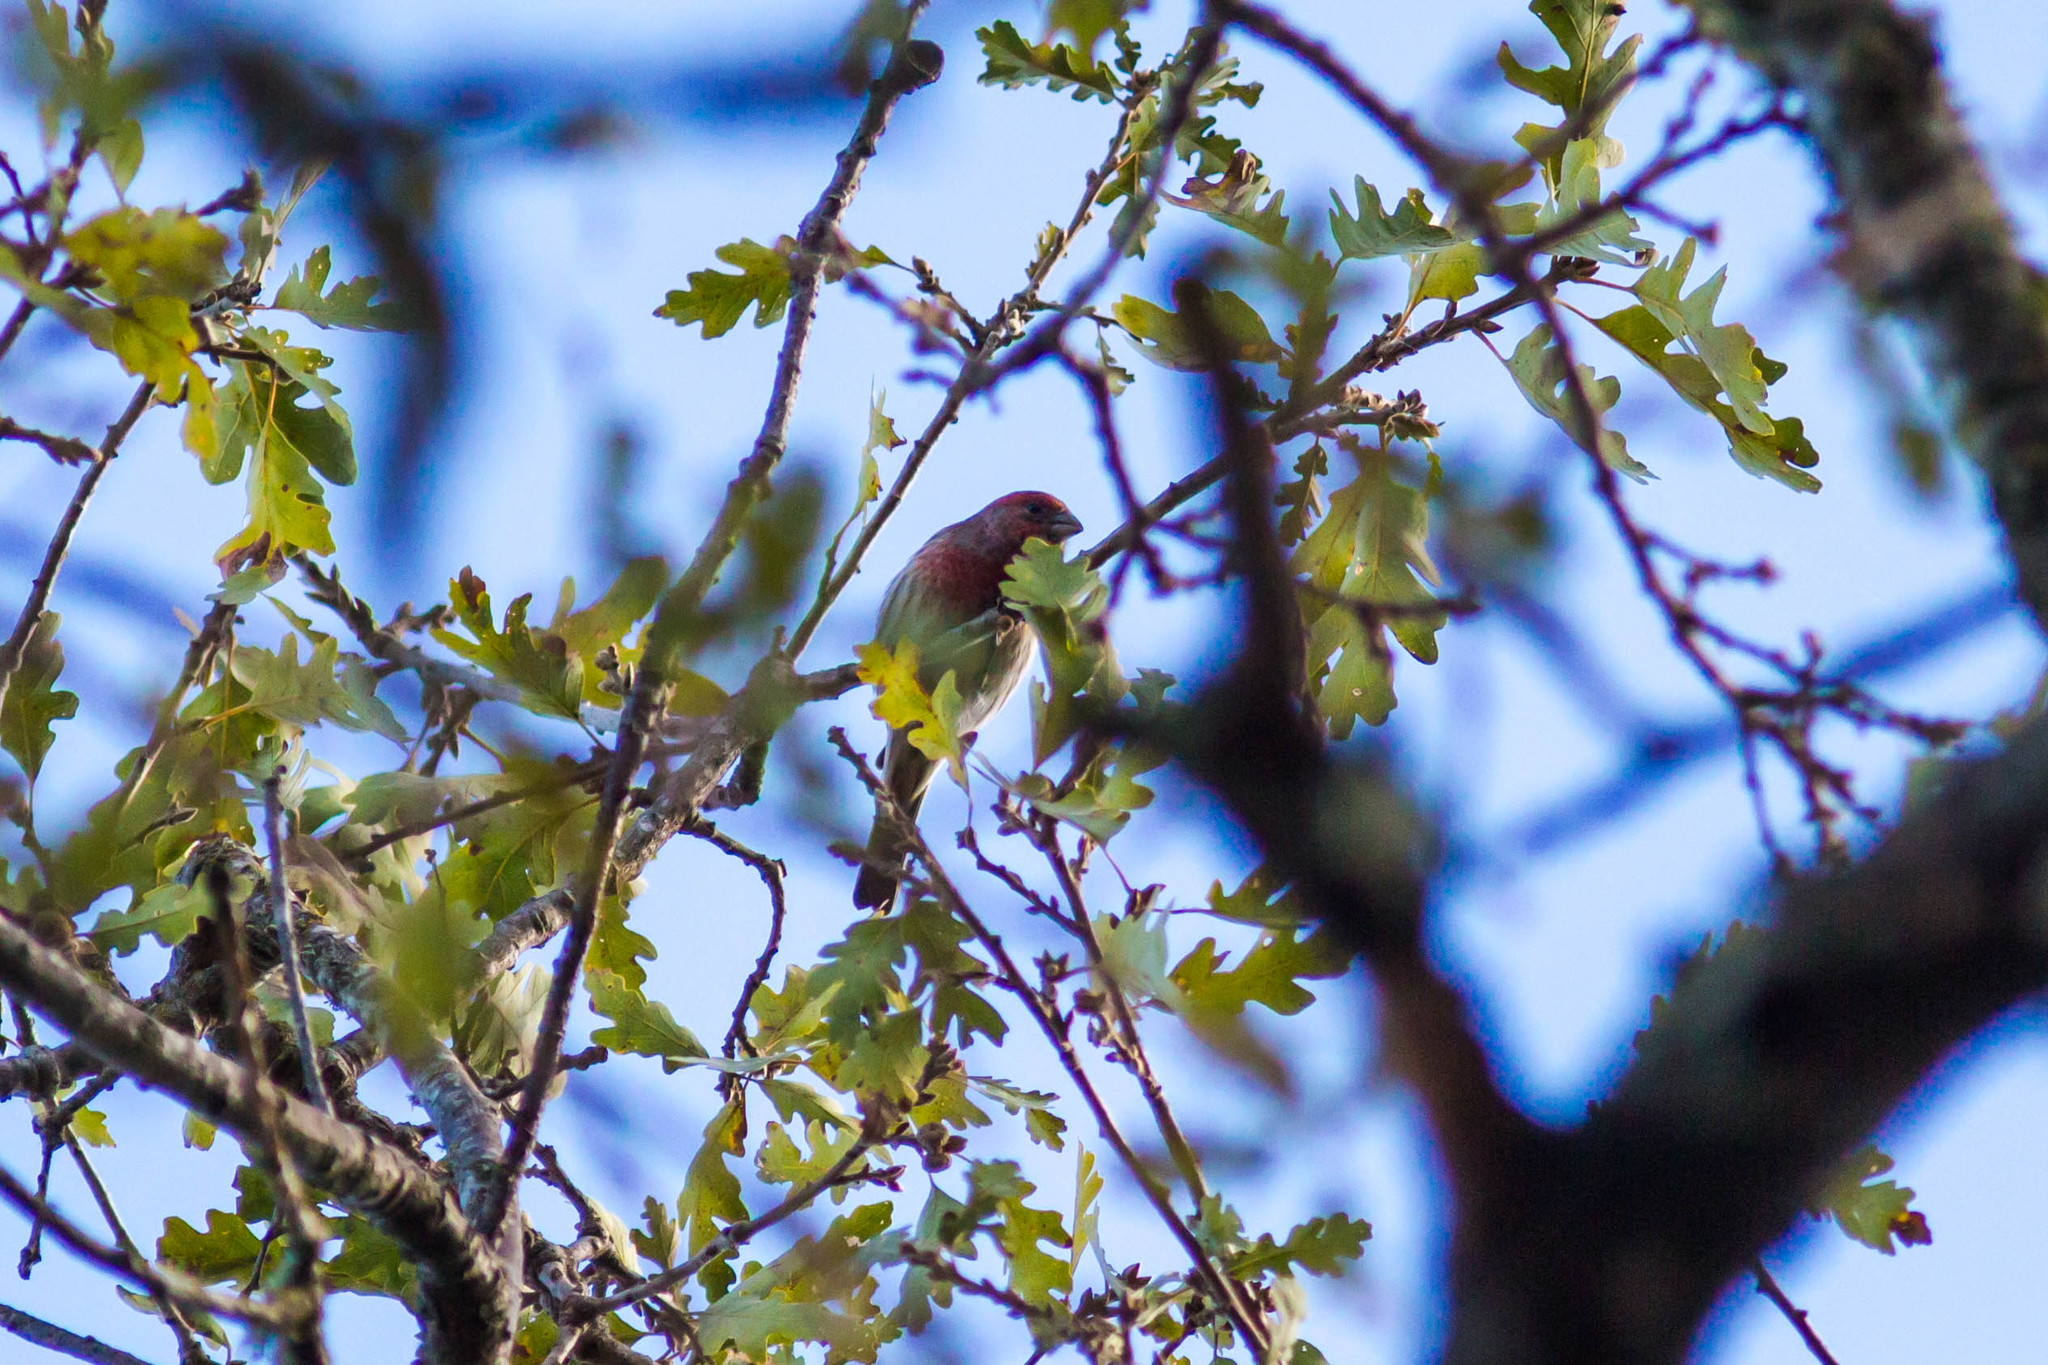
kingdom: Animalia
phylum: Chordata
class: Aves
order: Passeriformes
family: Fringillidae
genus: Haemorhous
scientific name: Haemorhous mexicanus
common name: House finch
